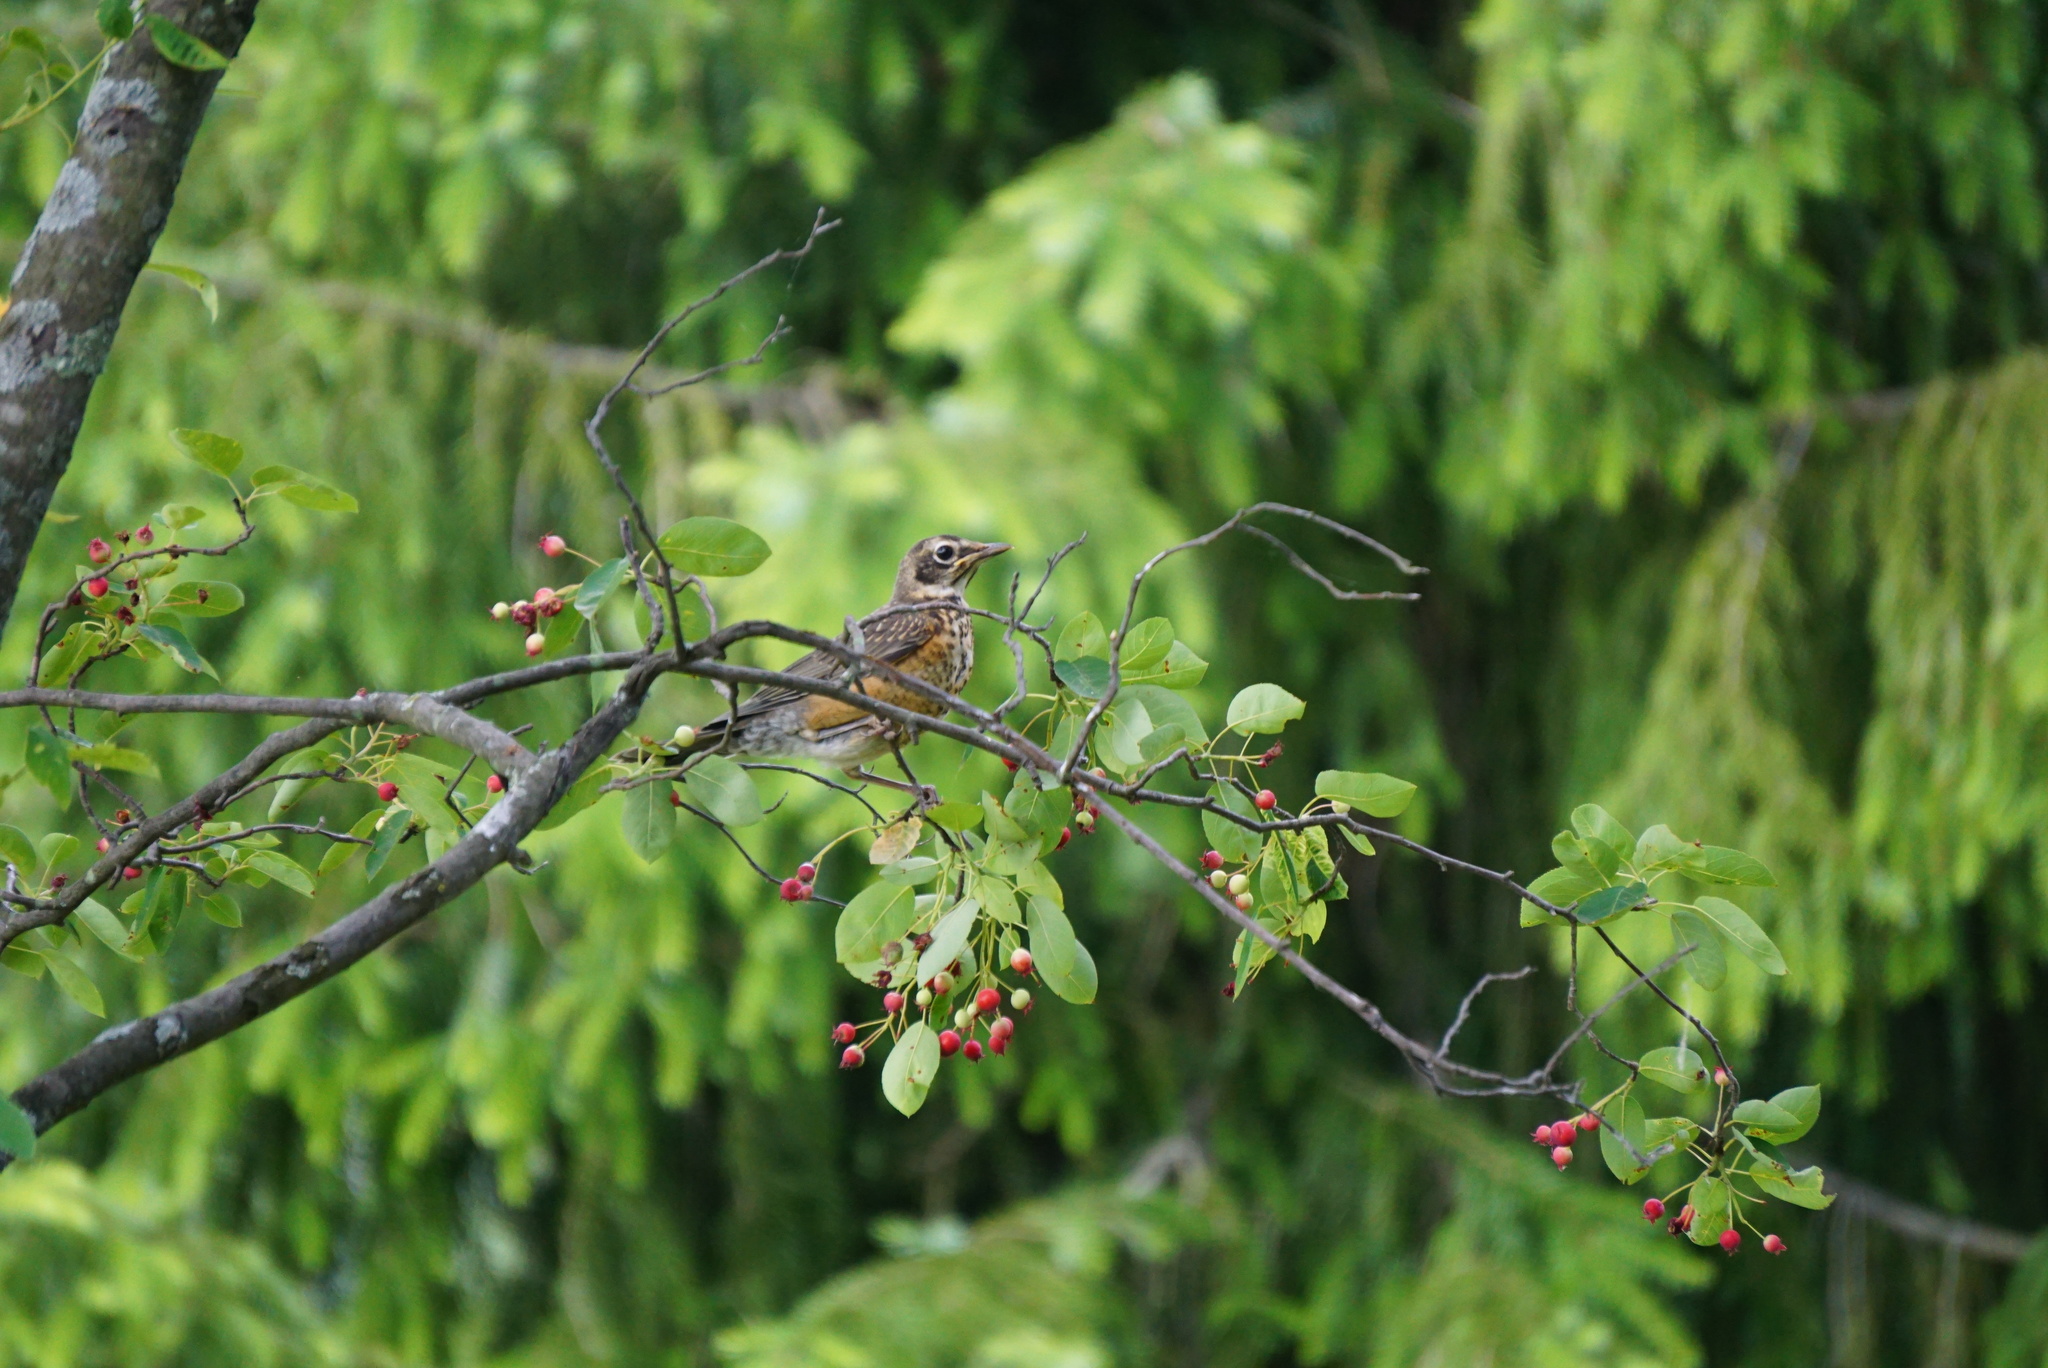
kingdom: Animalia
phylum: Chordata
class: Aves
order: Passeriformes
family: Turdidae
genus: Turdus
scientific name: Turdus migratorius
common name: American robin
